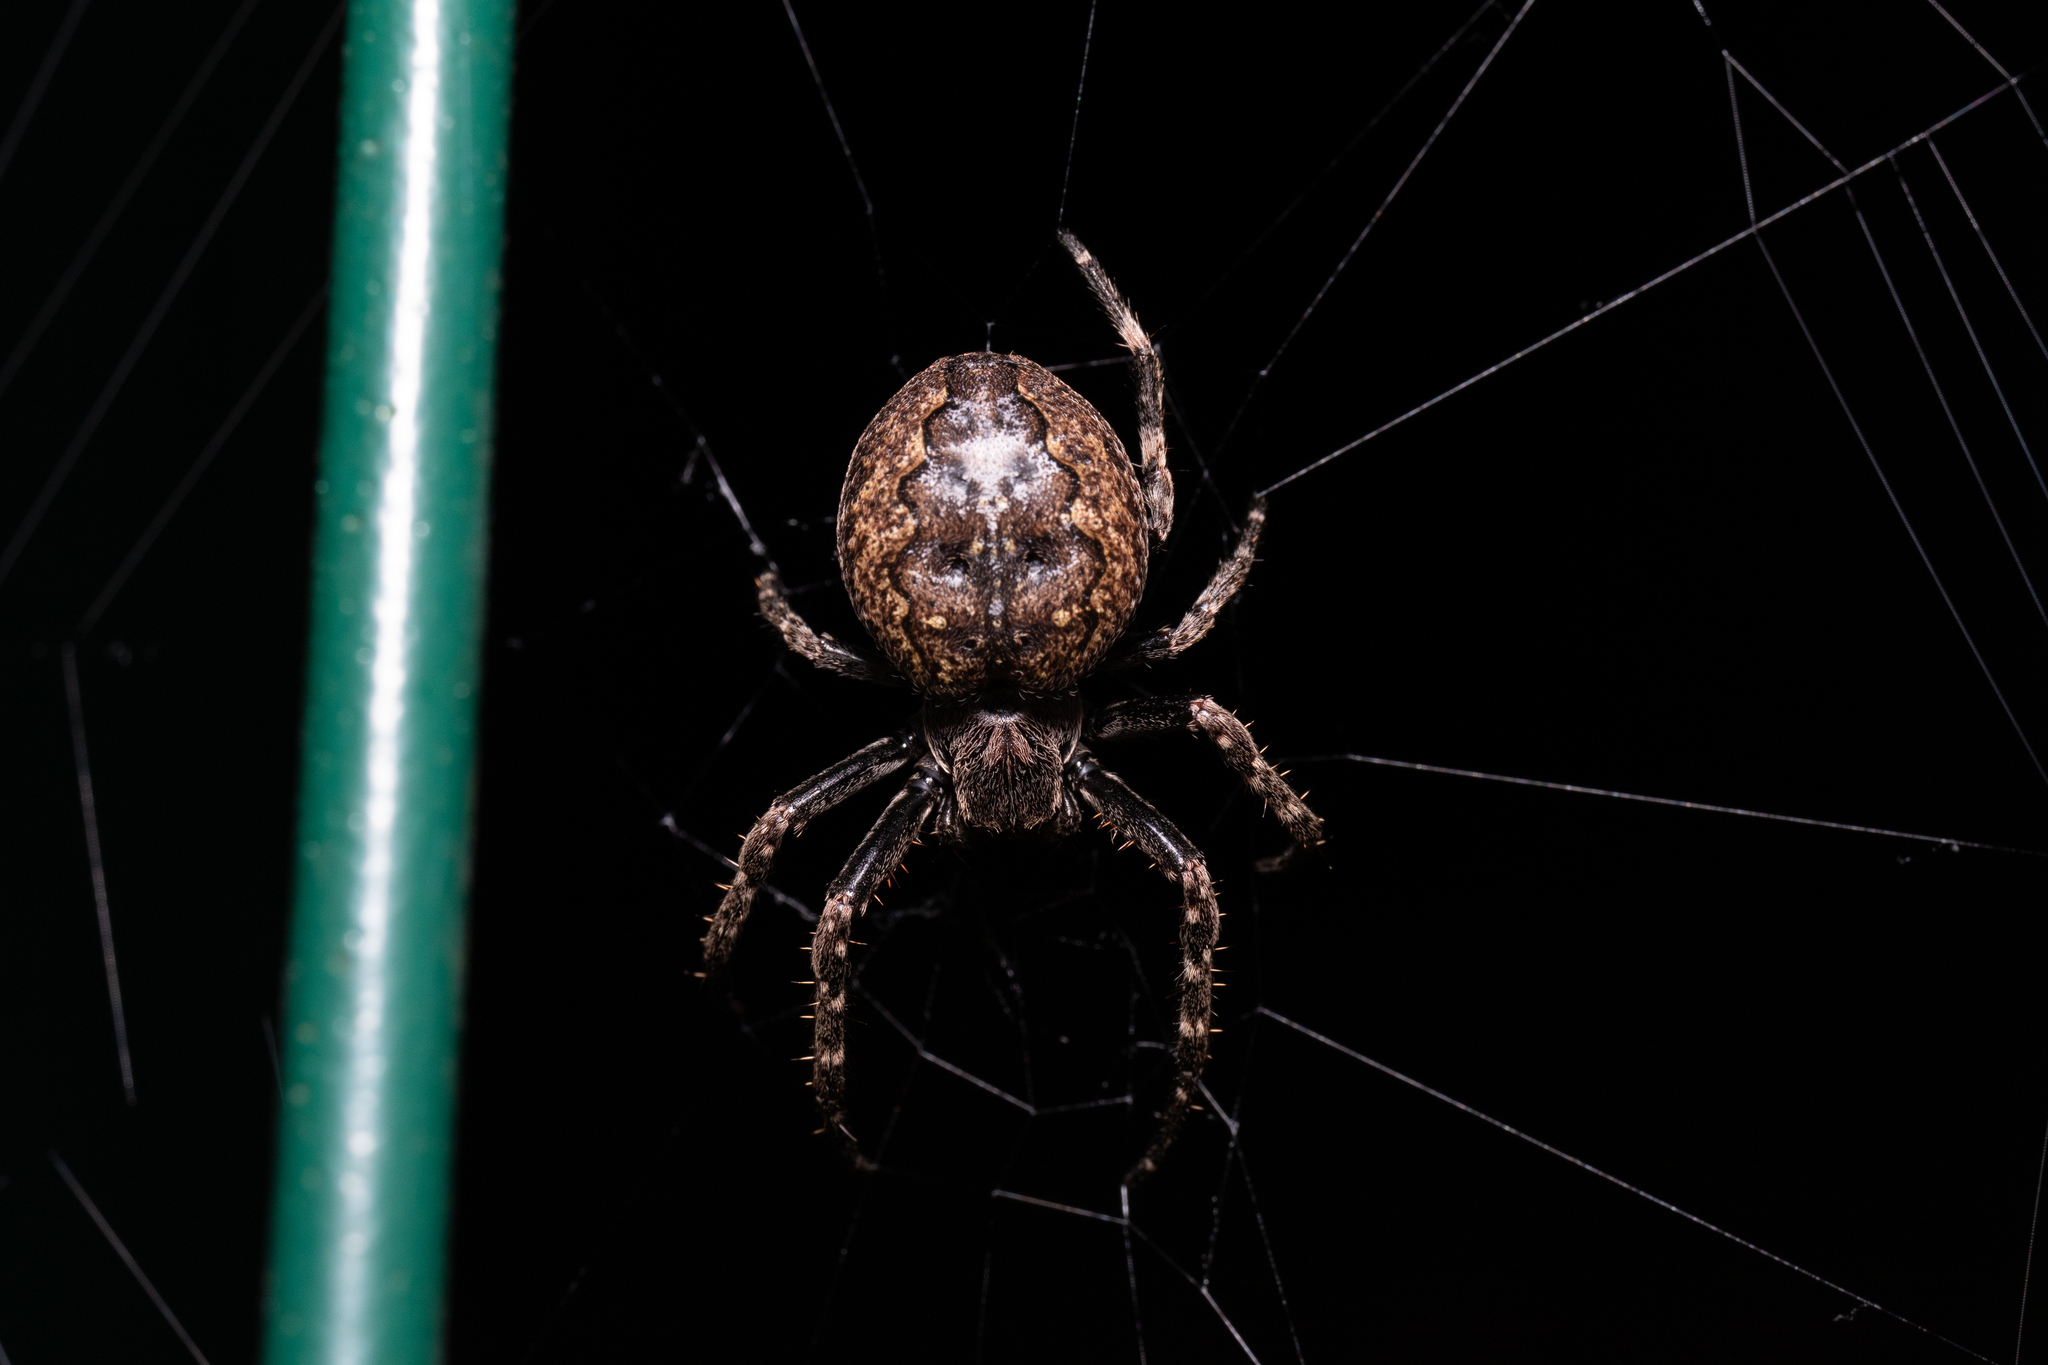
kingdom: Animalia
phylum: Arthropoda
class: Arachnida
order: Araneae
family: Araneidae
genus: Nuctenea
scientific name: Nuctenea umbratica
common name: Toad spider
